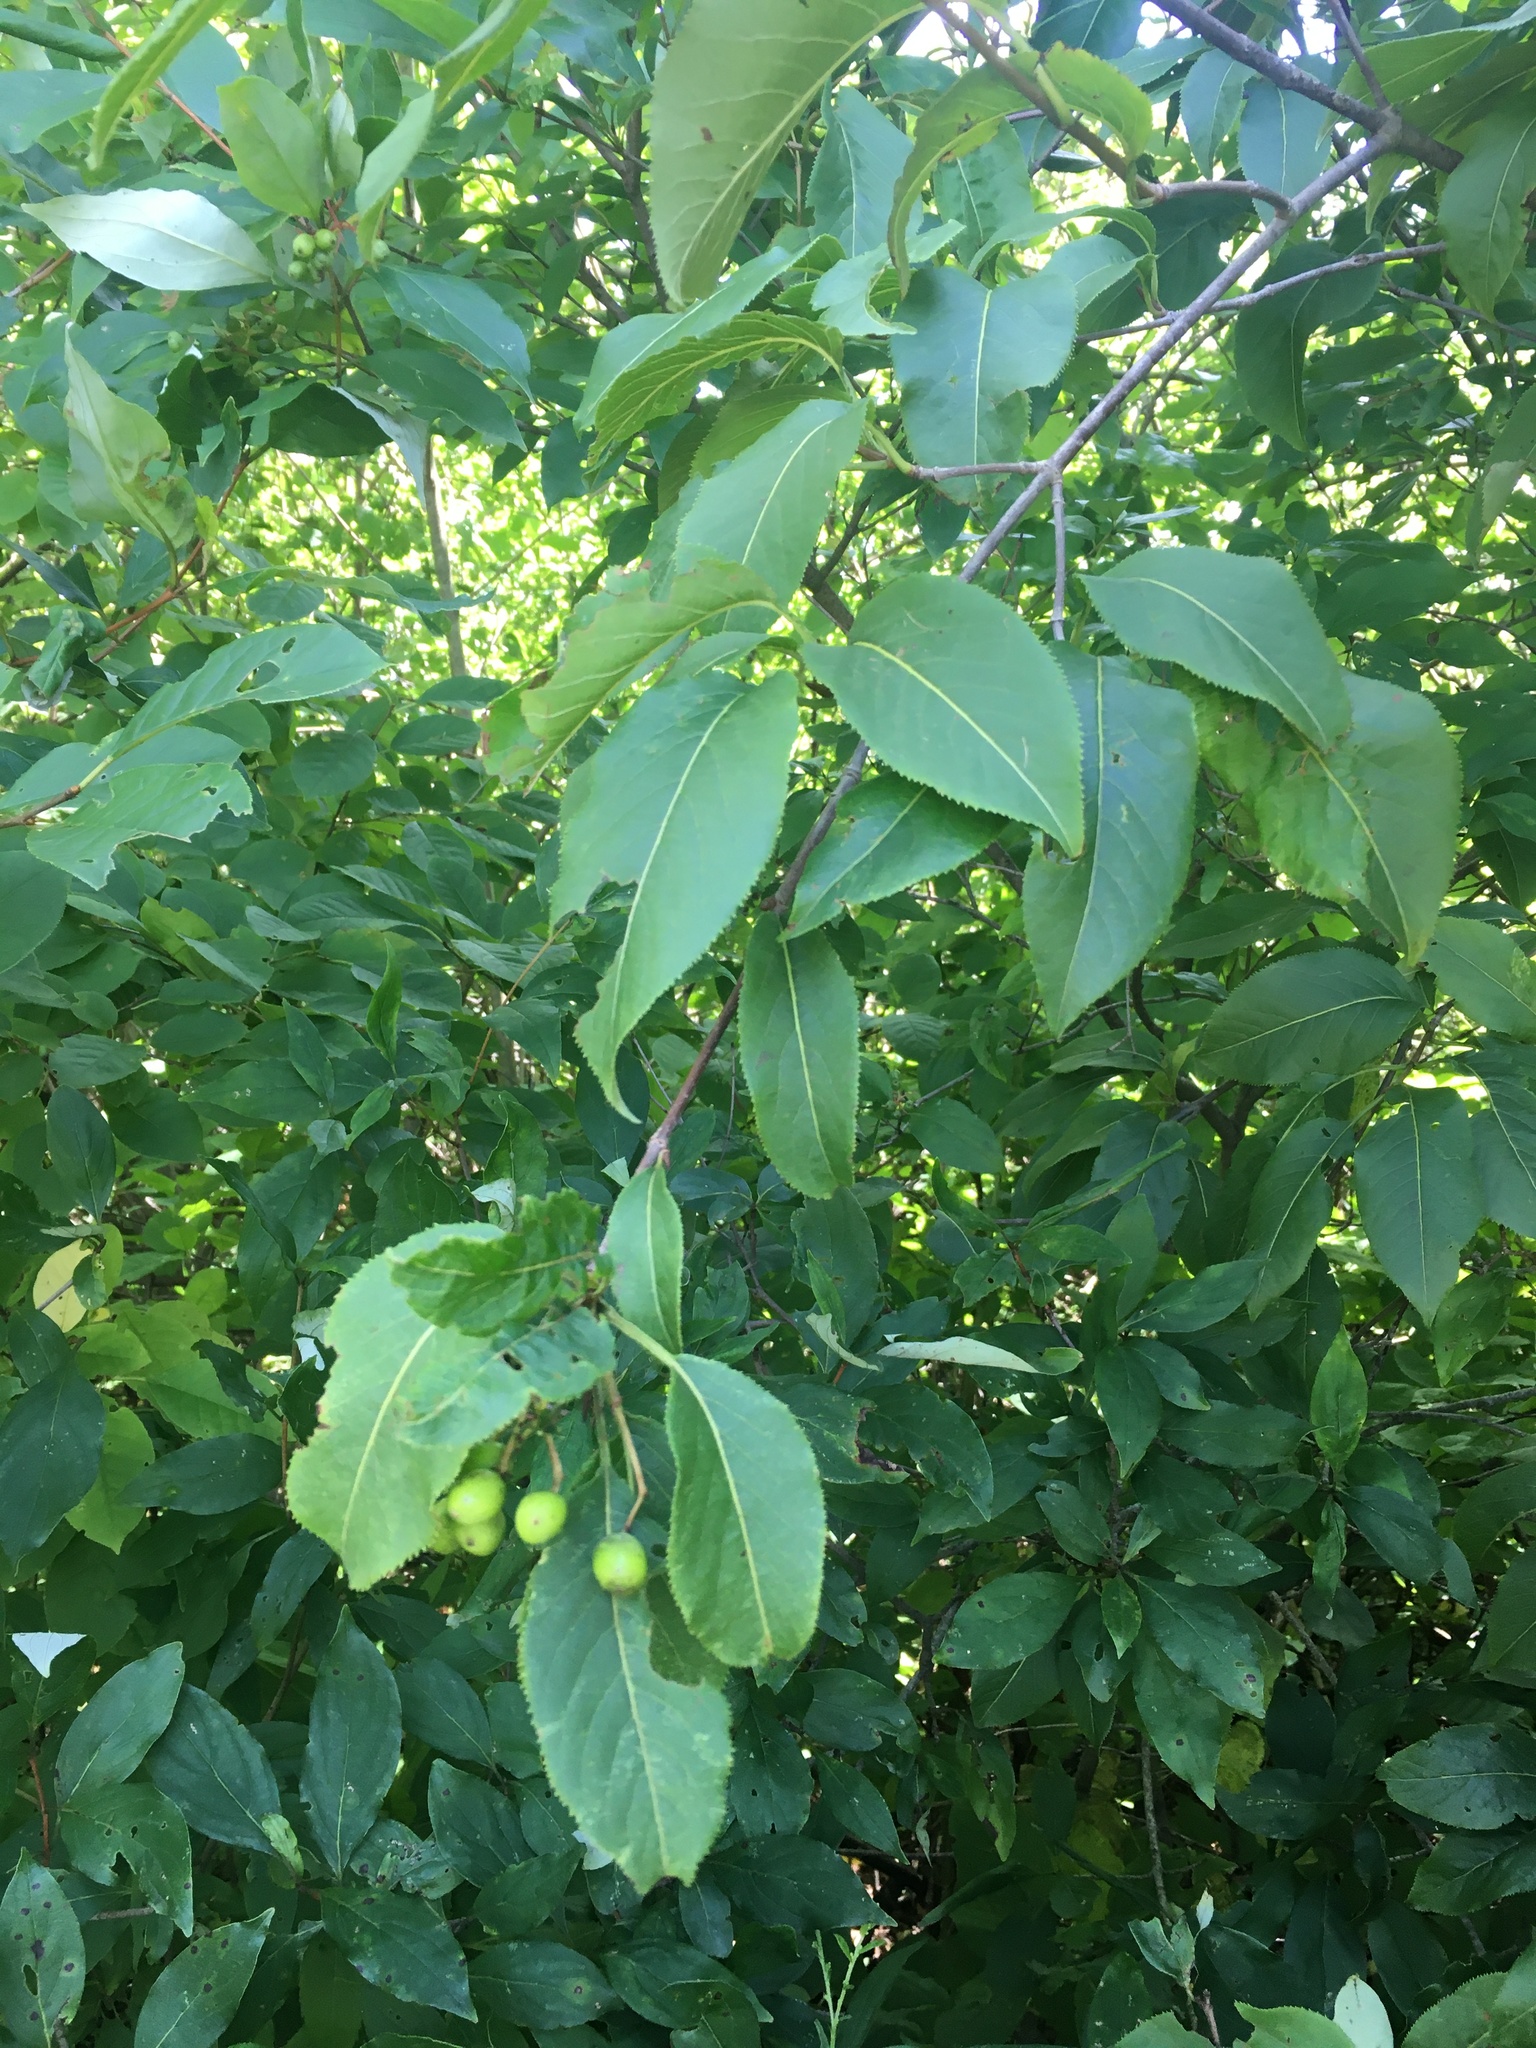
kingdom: Plantae
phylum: Tracheophyta
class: Magnoliopsida
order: Dipsacales
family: Viburnaceae
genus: Viburnum
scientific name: Viburnum lentago
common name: Black haw
